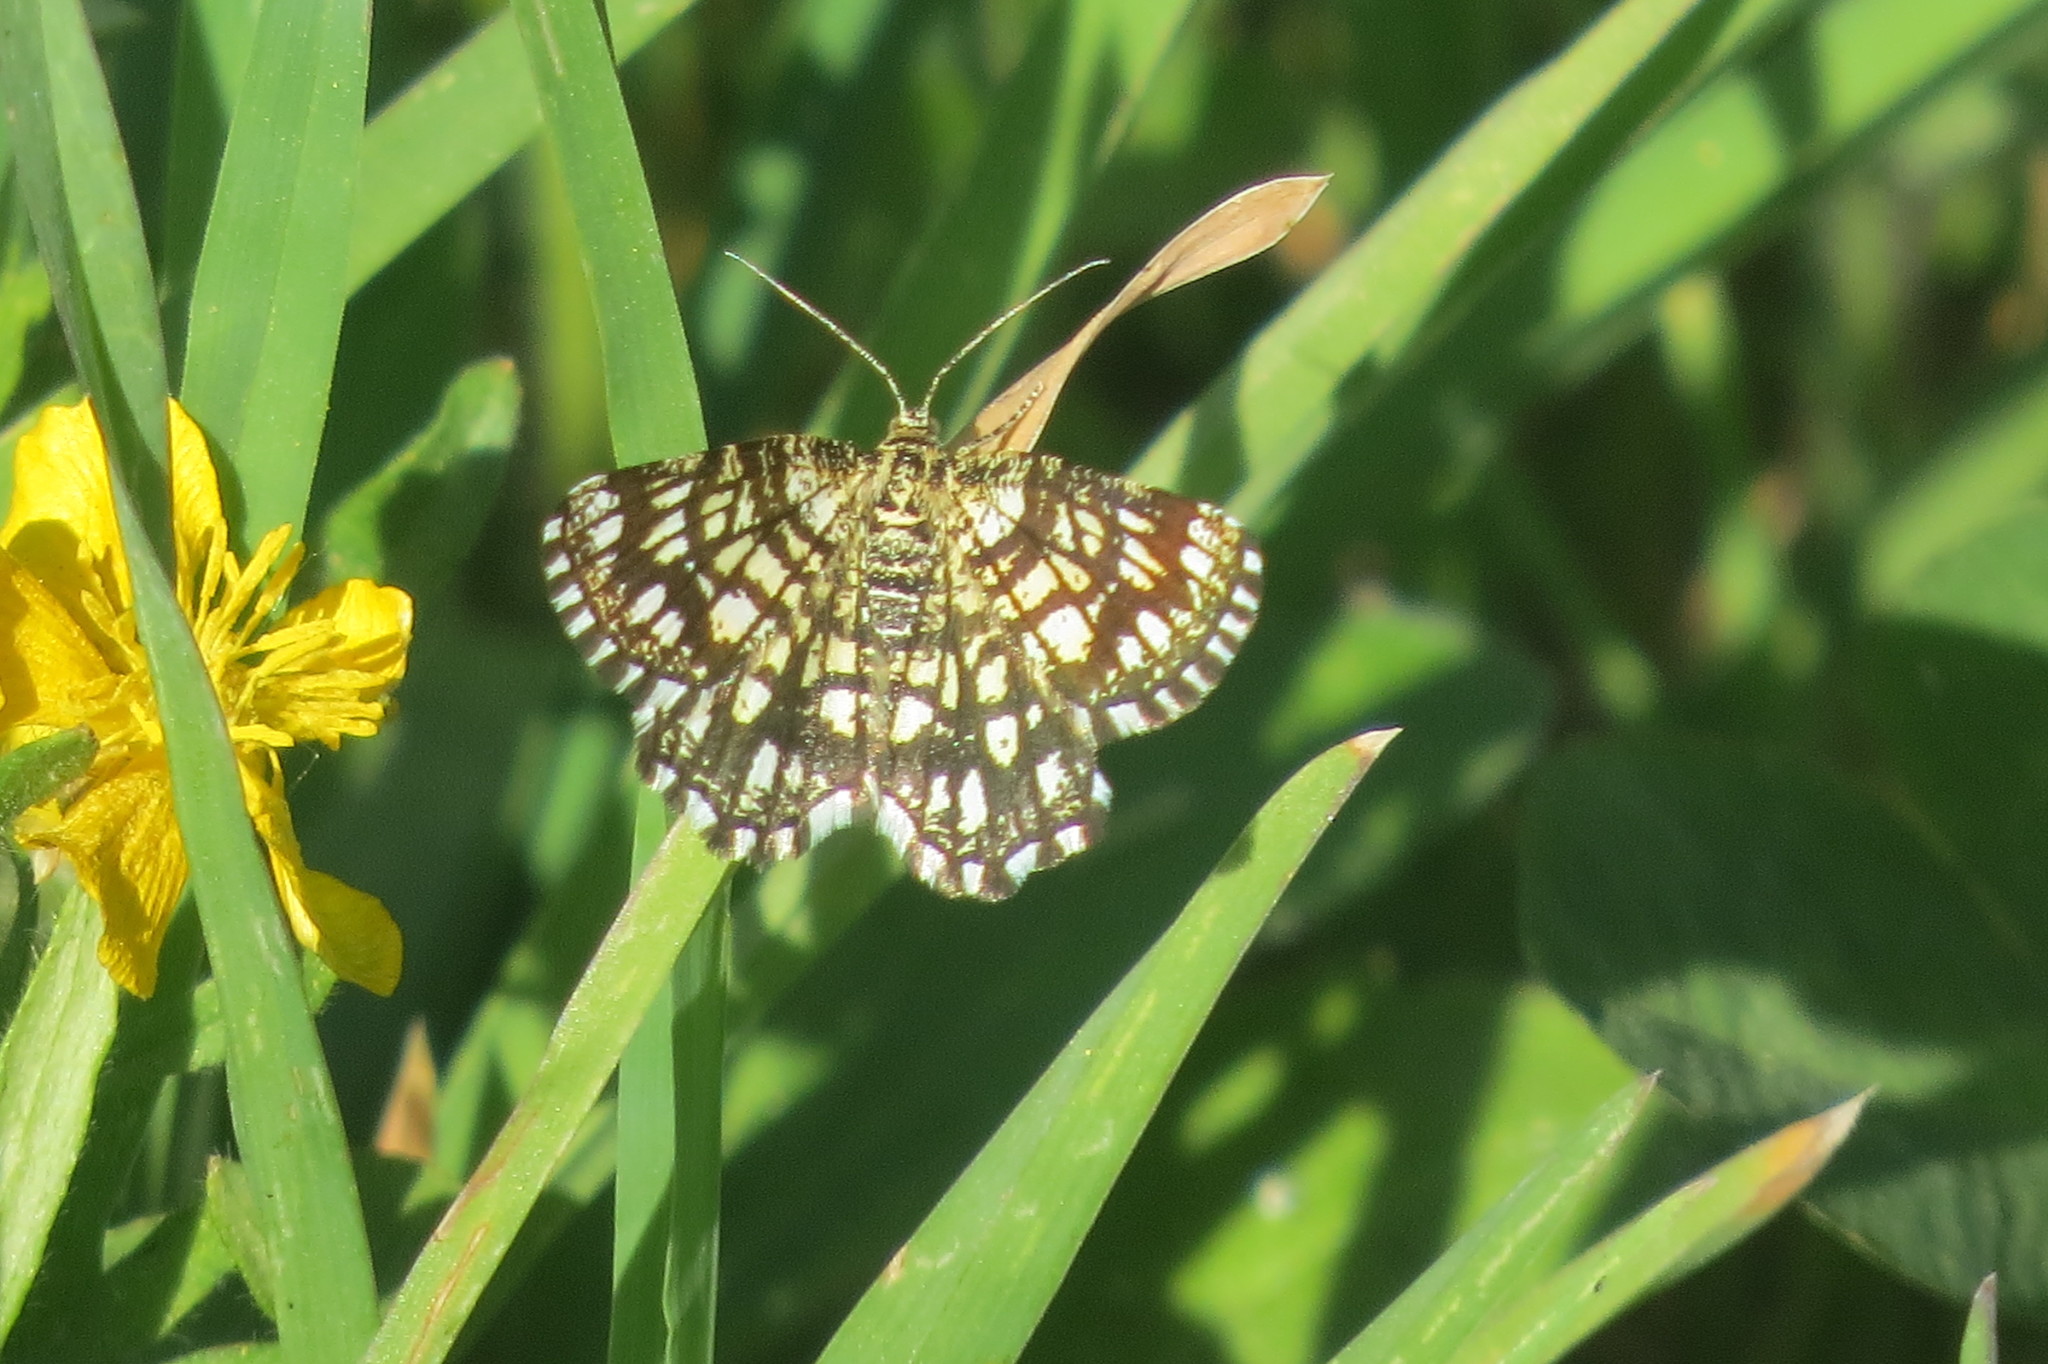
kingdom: Animalia
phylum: Arthropoda
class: Insecta
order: Lepidoptera
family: Geometridae
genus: Chiasmia
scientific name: Chiasmia clathrata
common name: Latticed heath
